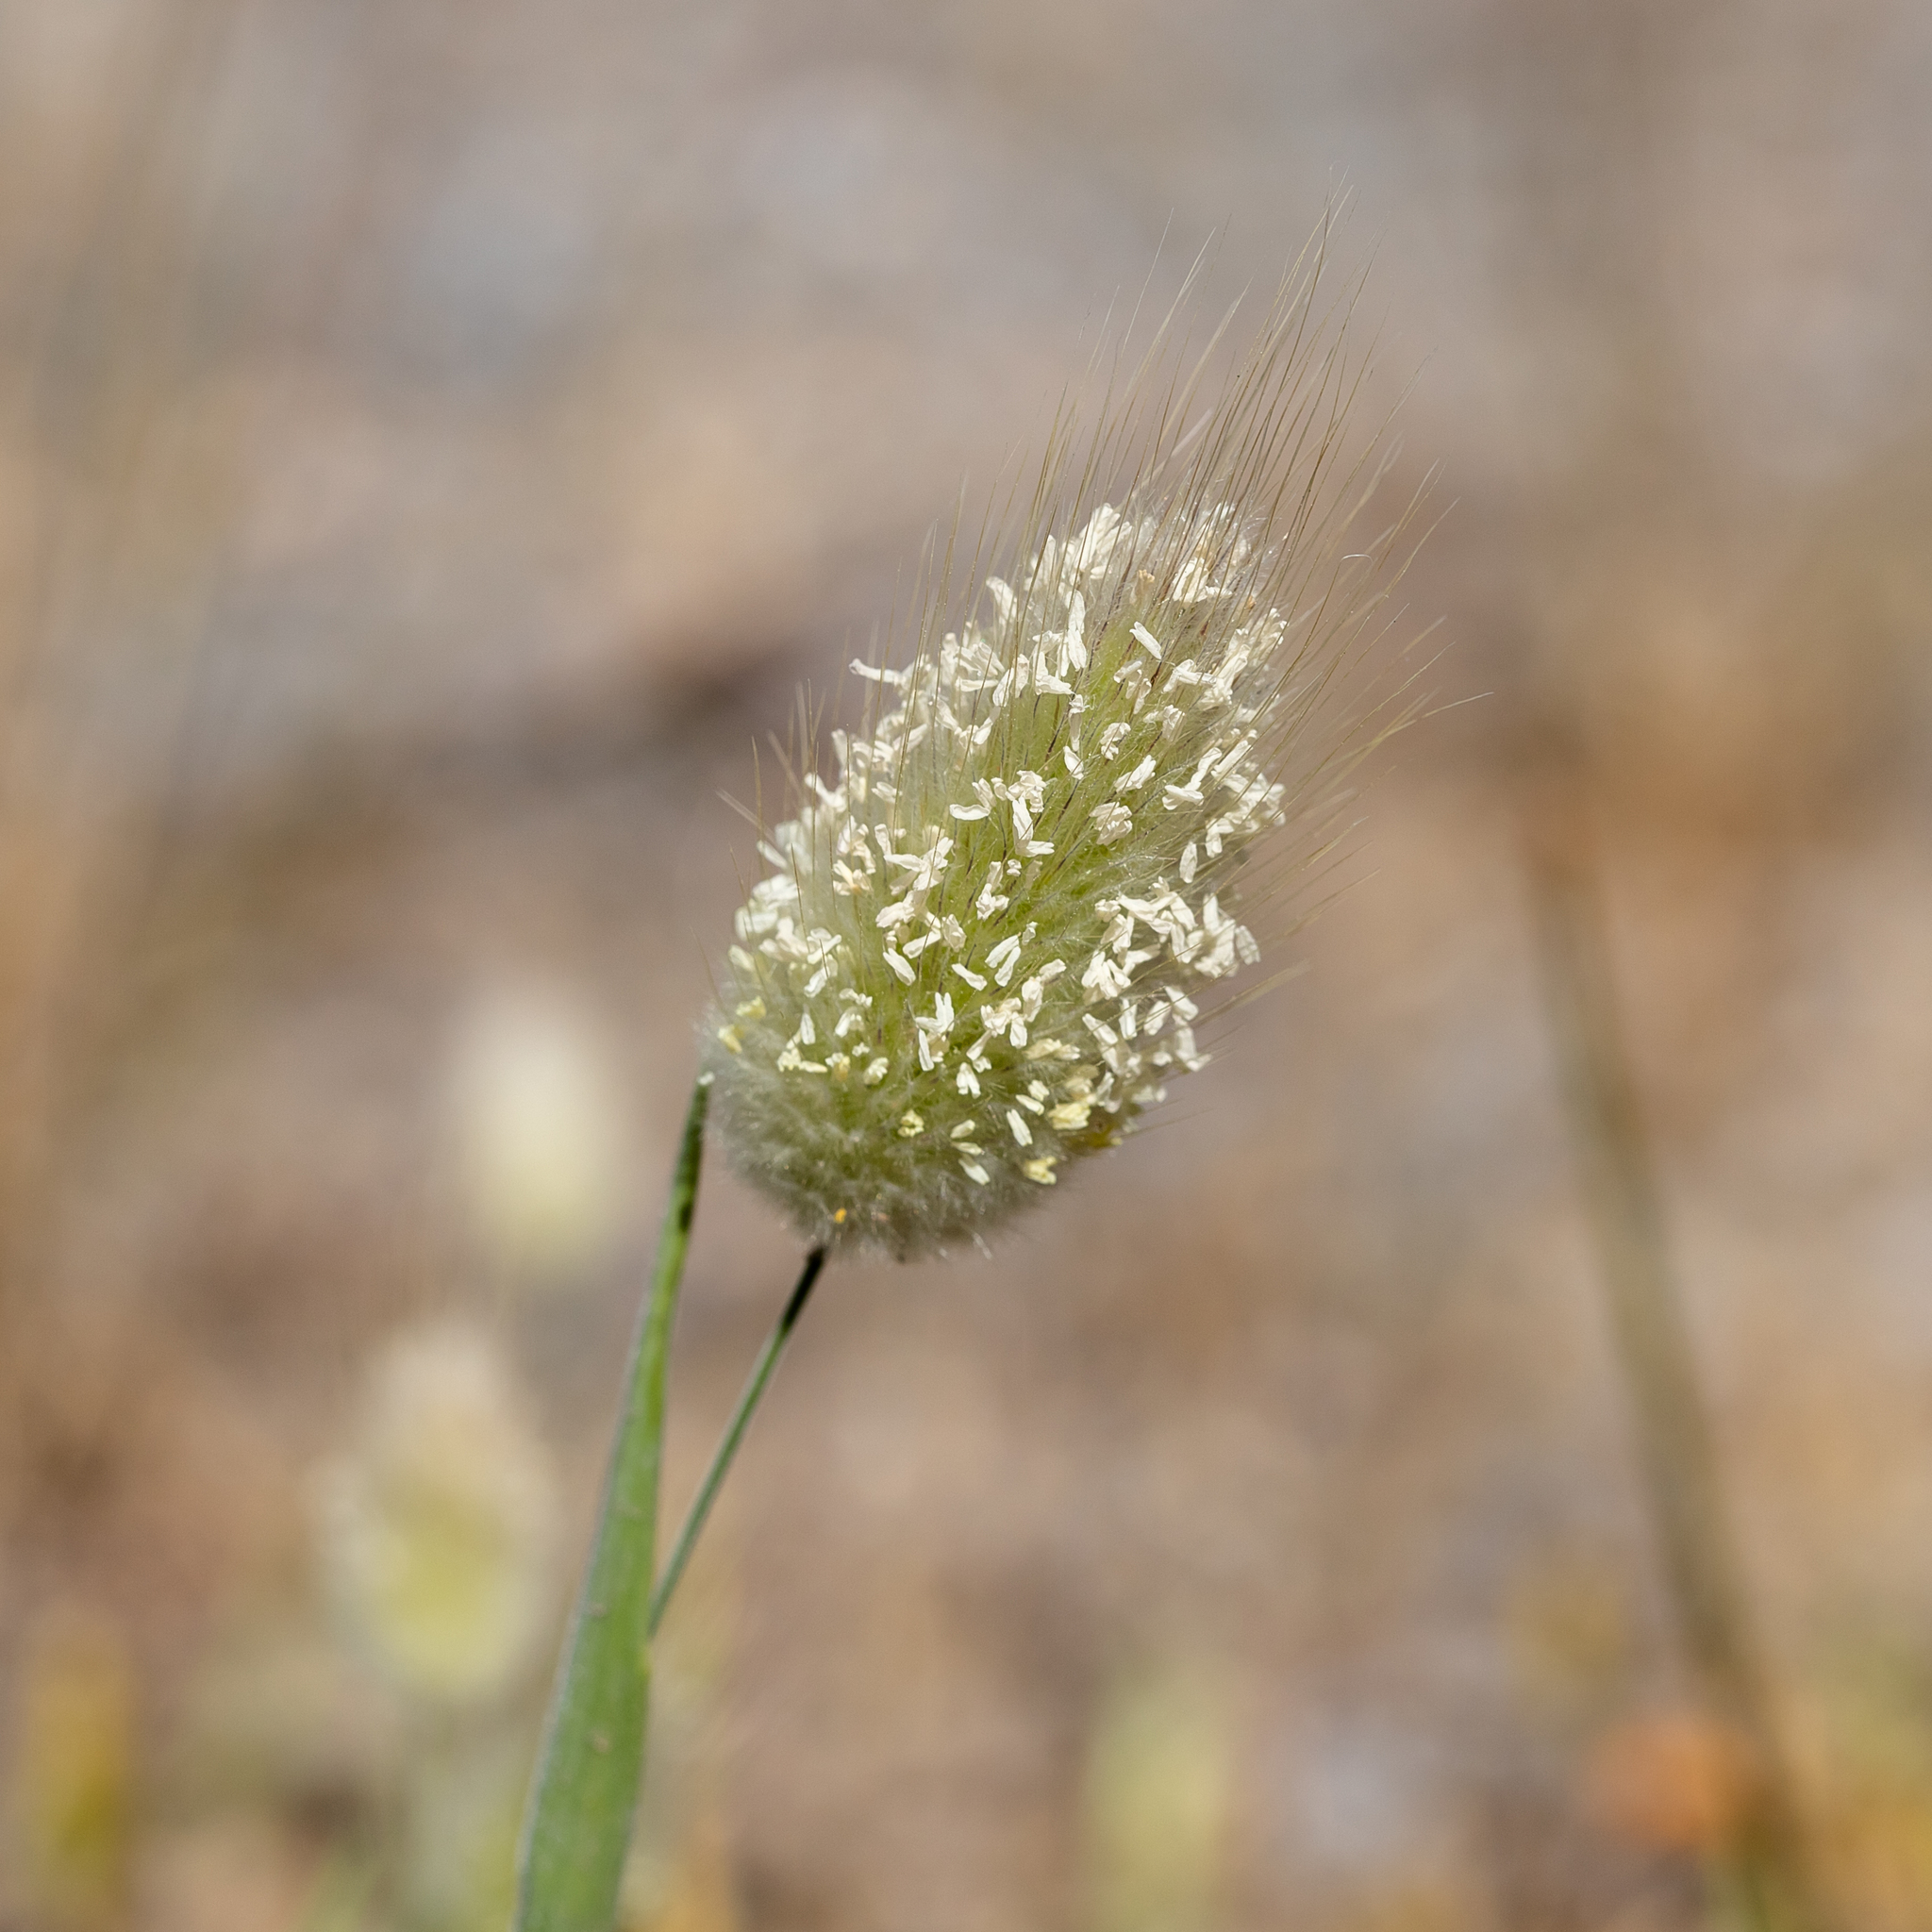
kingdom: Plantae
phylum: Tracheophyta
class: Liliopsida
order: Poales
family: Poaceae
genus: Lagurus
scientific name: Lagurus ovatus
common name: Hare's-tail
